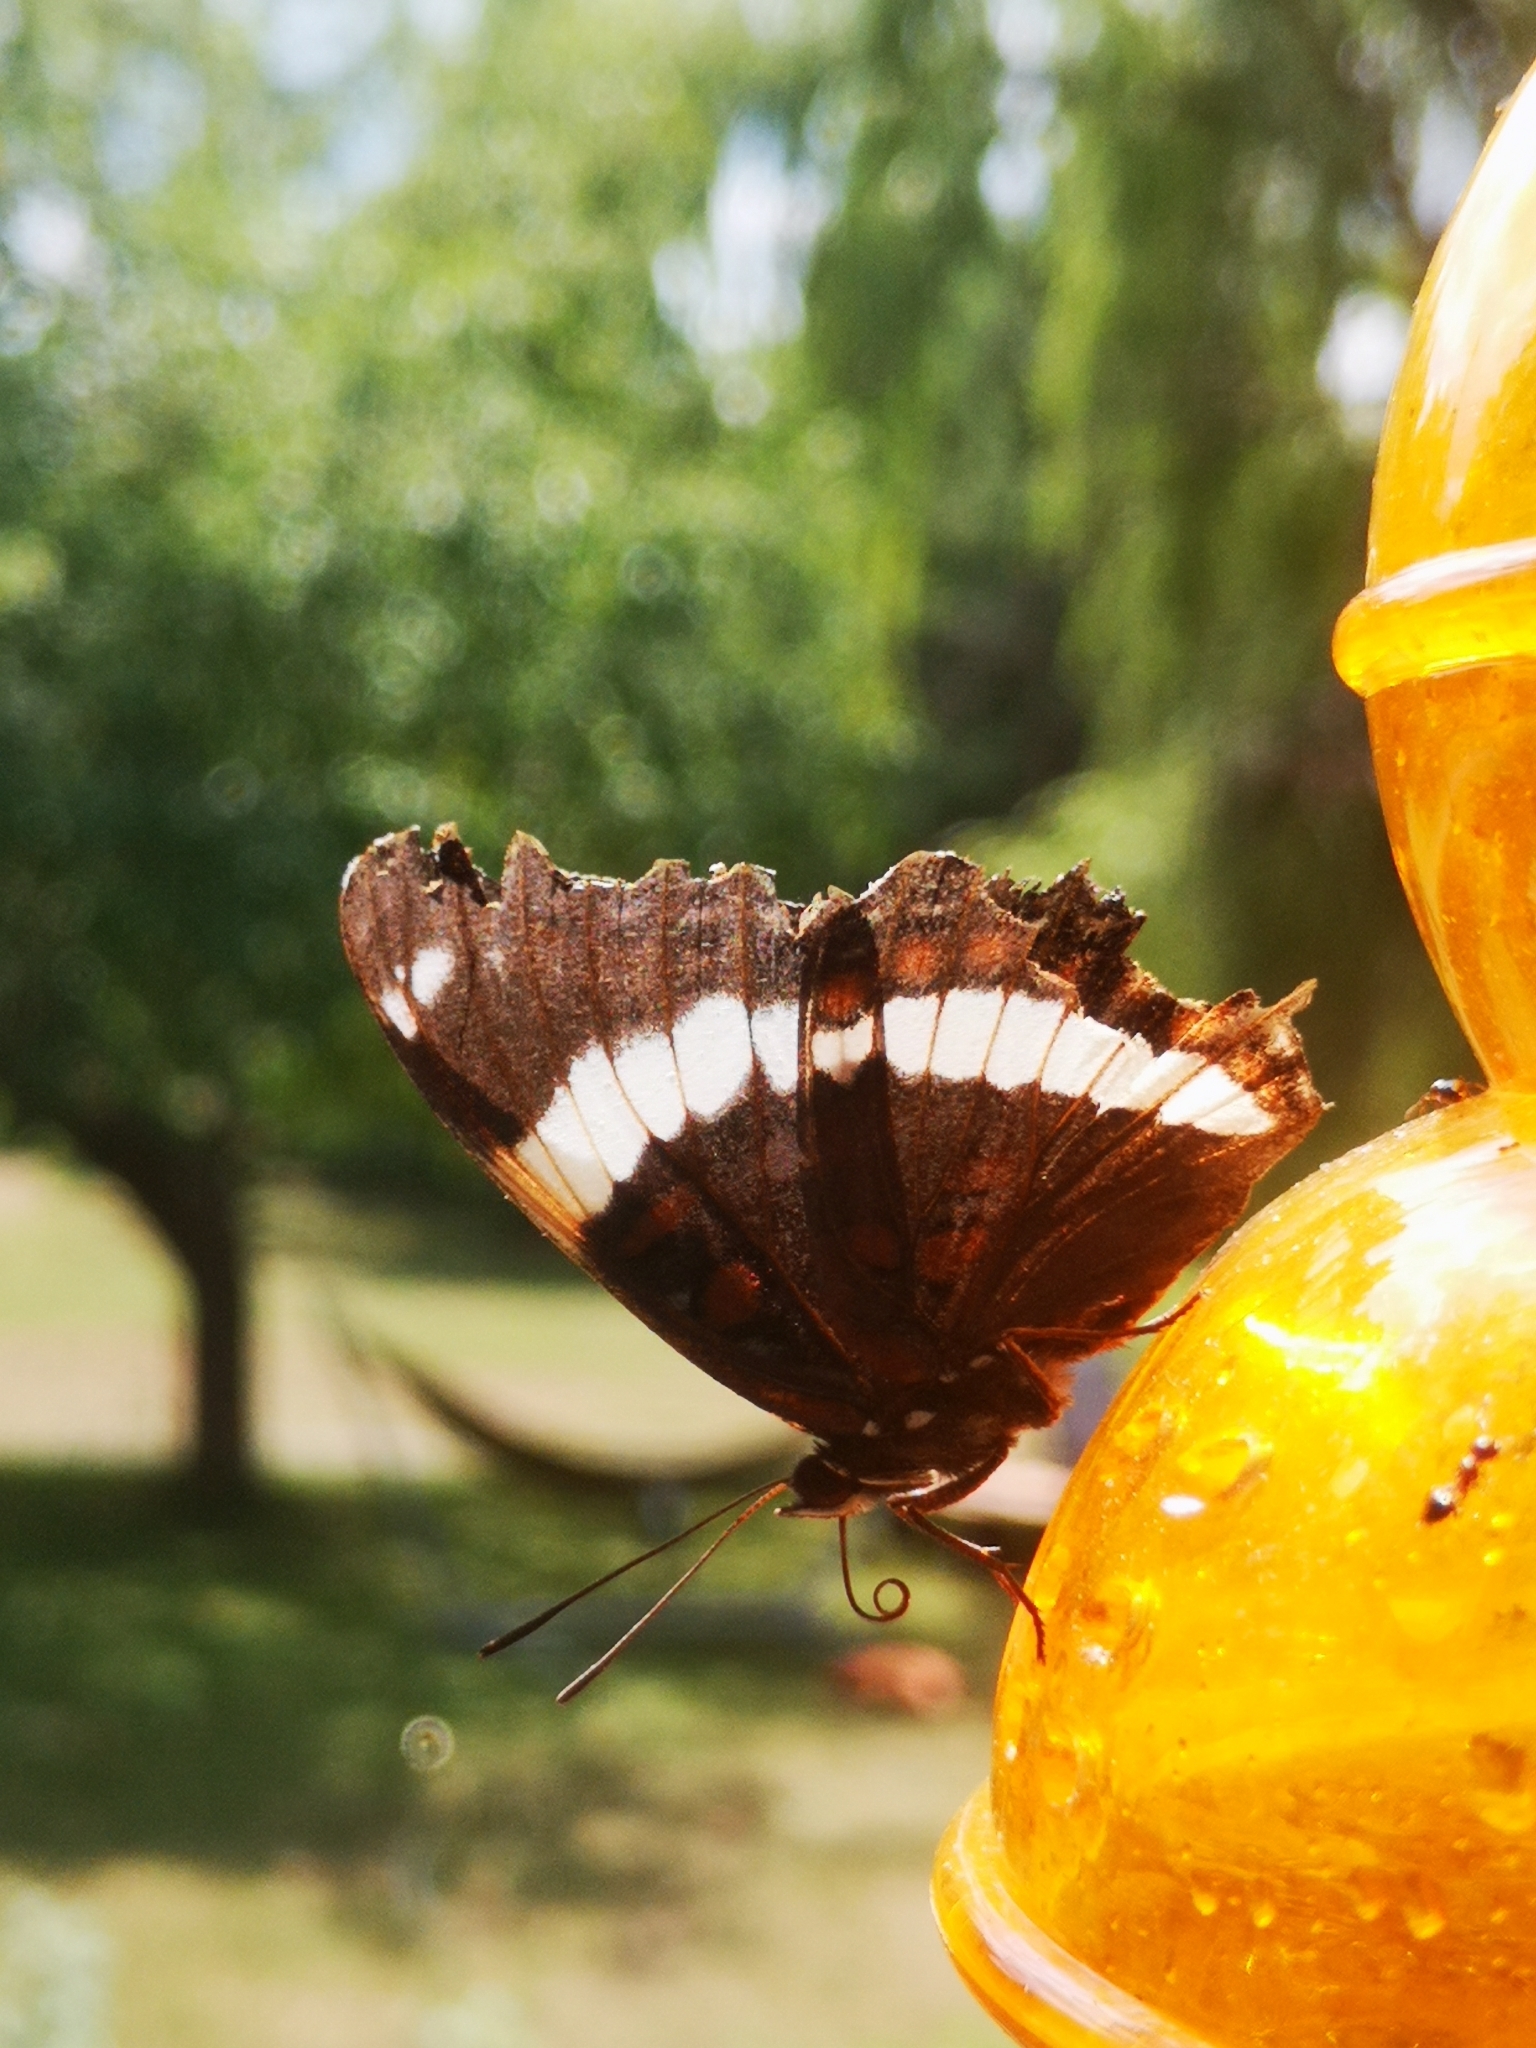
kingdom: Animalia
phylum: Arthropoda
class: Insecta
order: Lepidoptera
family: Nymphalidae
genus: Limenitis
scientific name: Limenitis arthemis
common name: Red-spotted admiral
